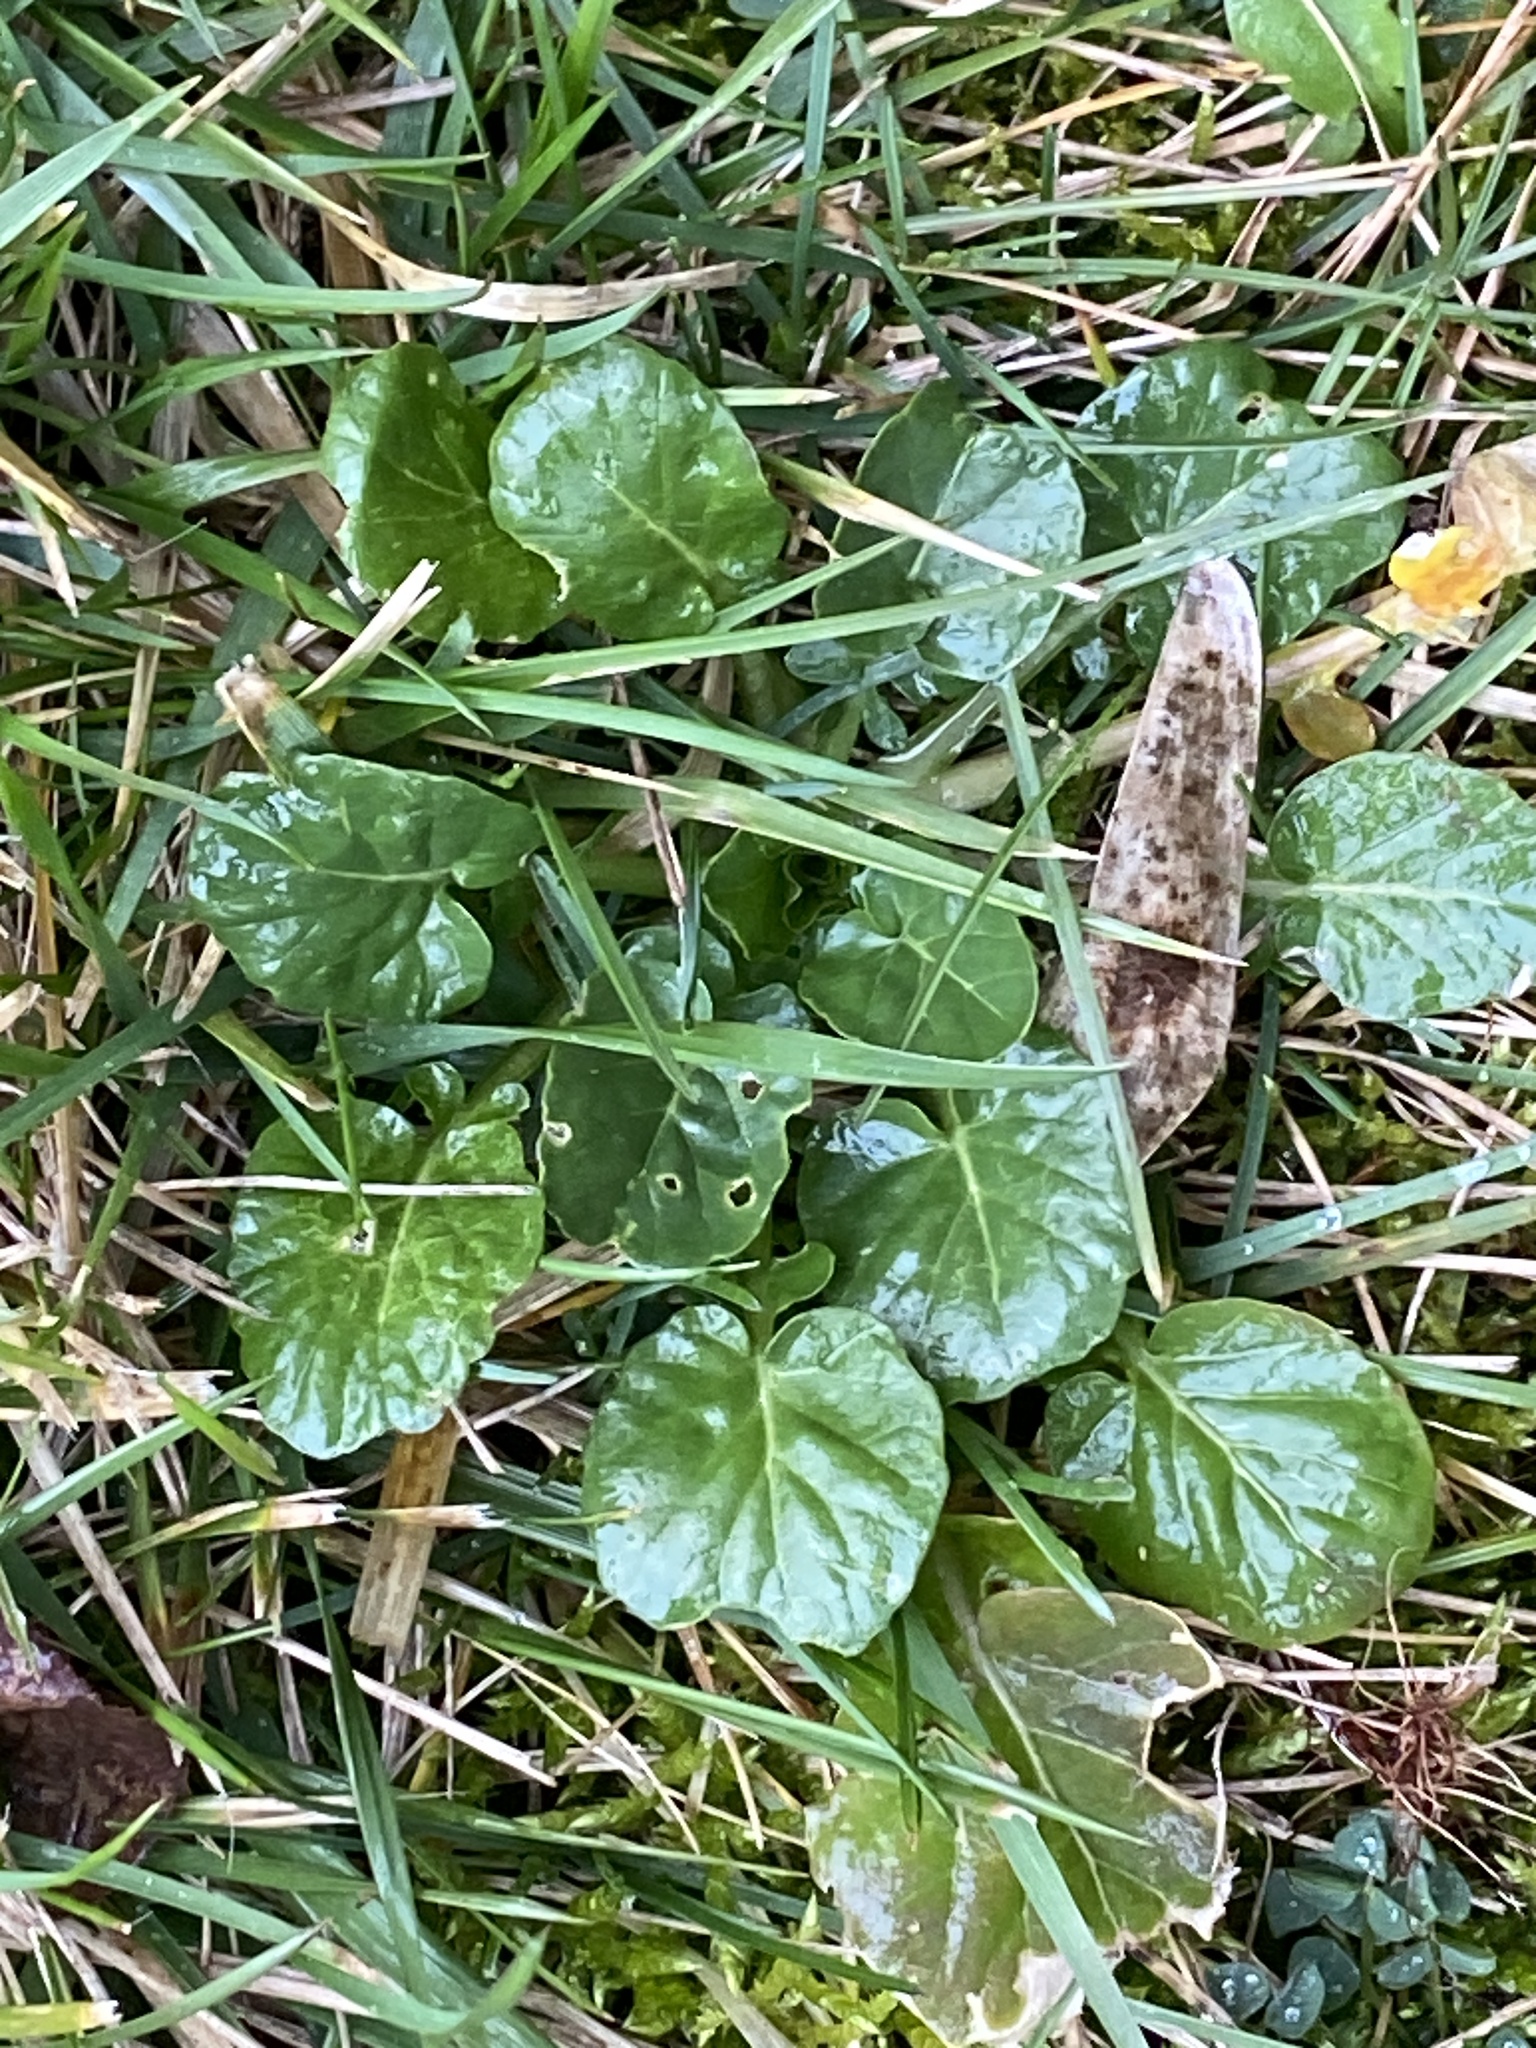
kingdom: Plantae
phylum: Tracheophyta
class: Magnoliopsida
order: Brassicales
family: Brassicaceae
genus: Barbarea
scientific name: Barbarea vulgaris
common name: Cressy-greens
